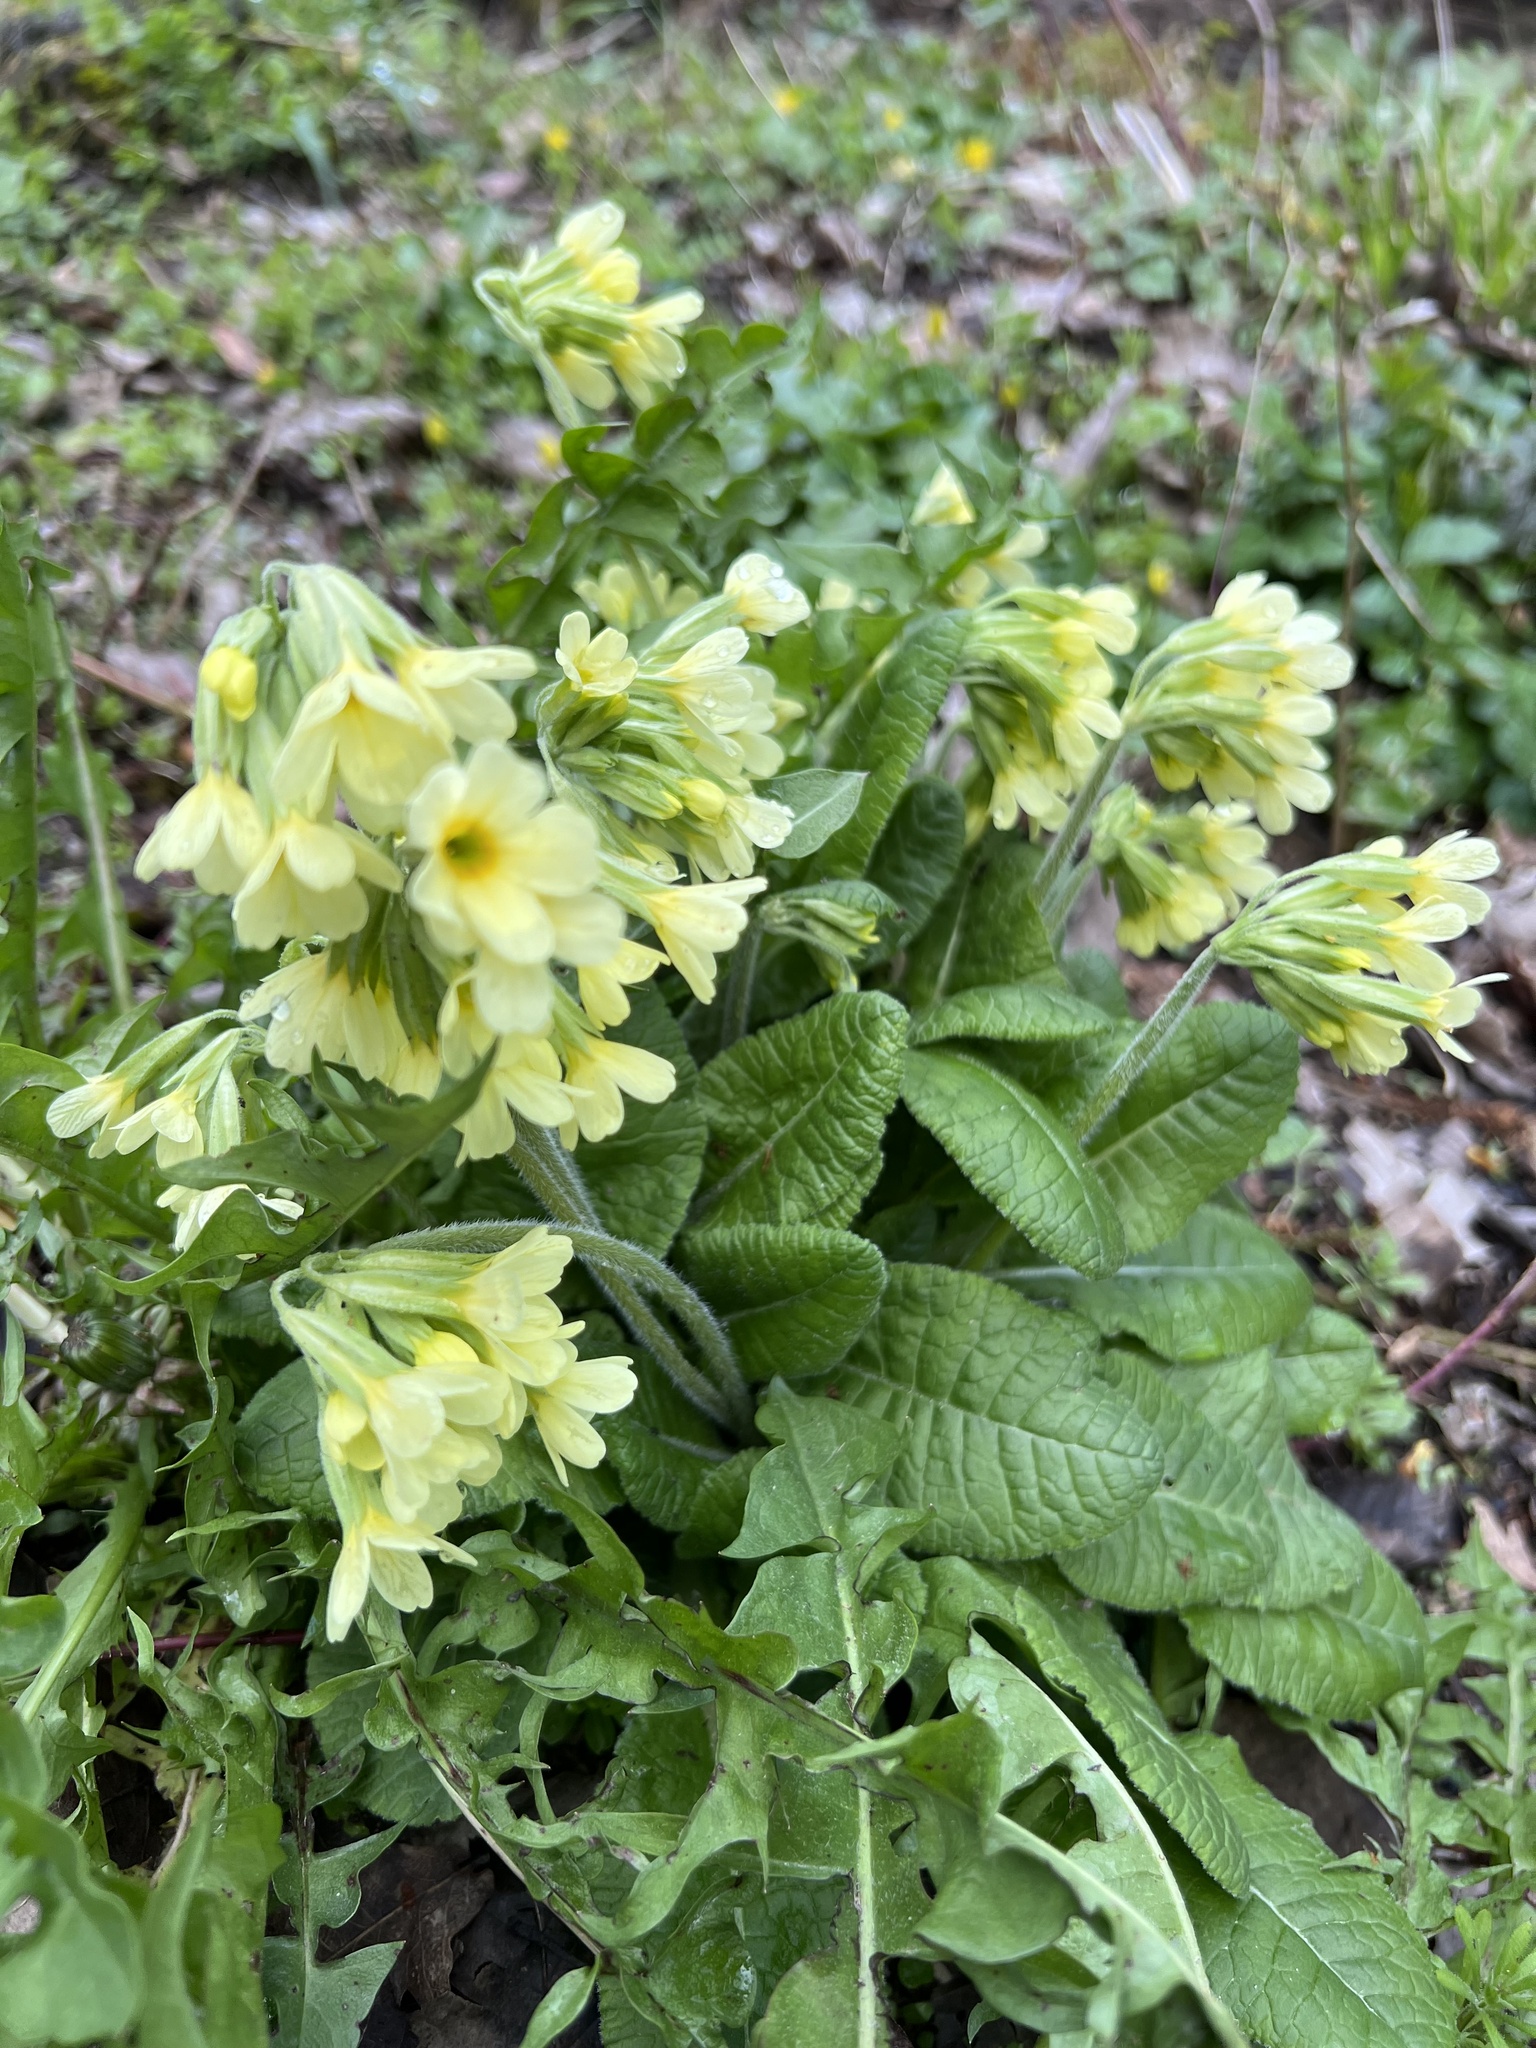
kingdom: Plantae
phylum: Tracheophyta
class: Magnoliopsida
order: Ericales
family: Primulaceae
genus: Primula
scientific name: Primula elatior
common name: Oxlip
